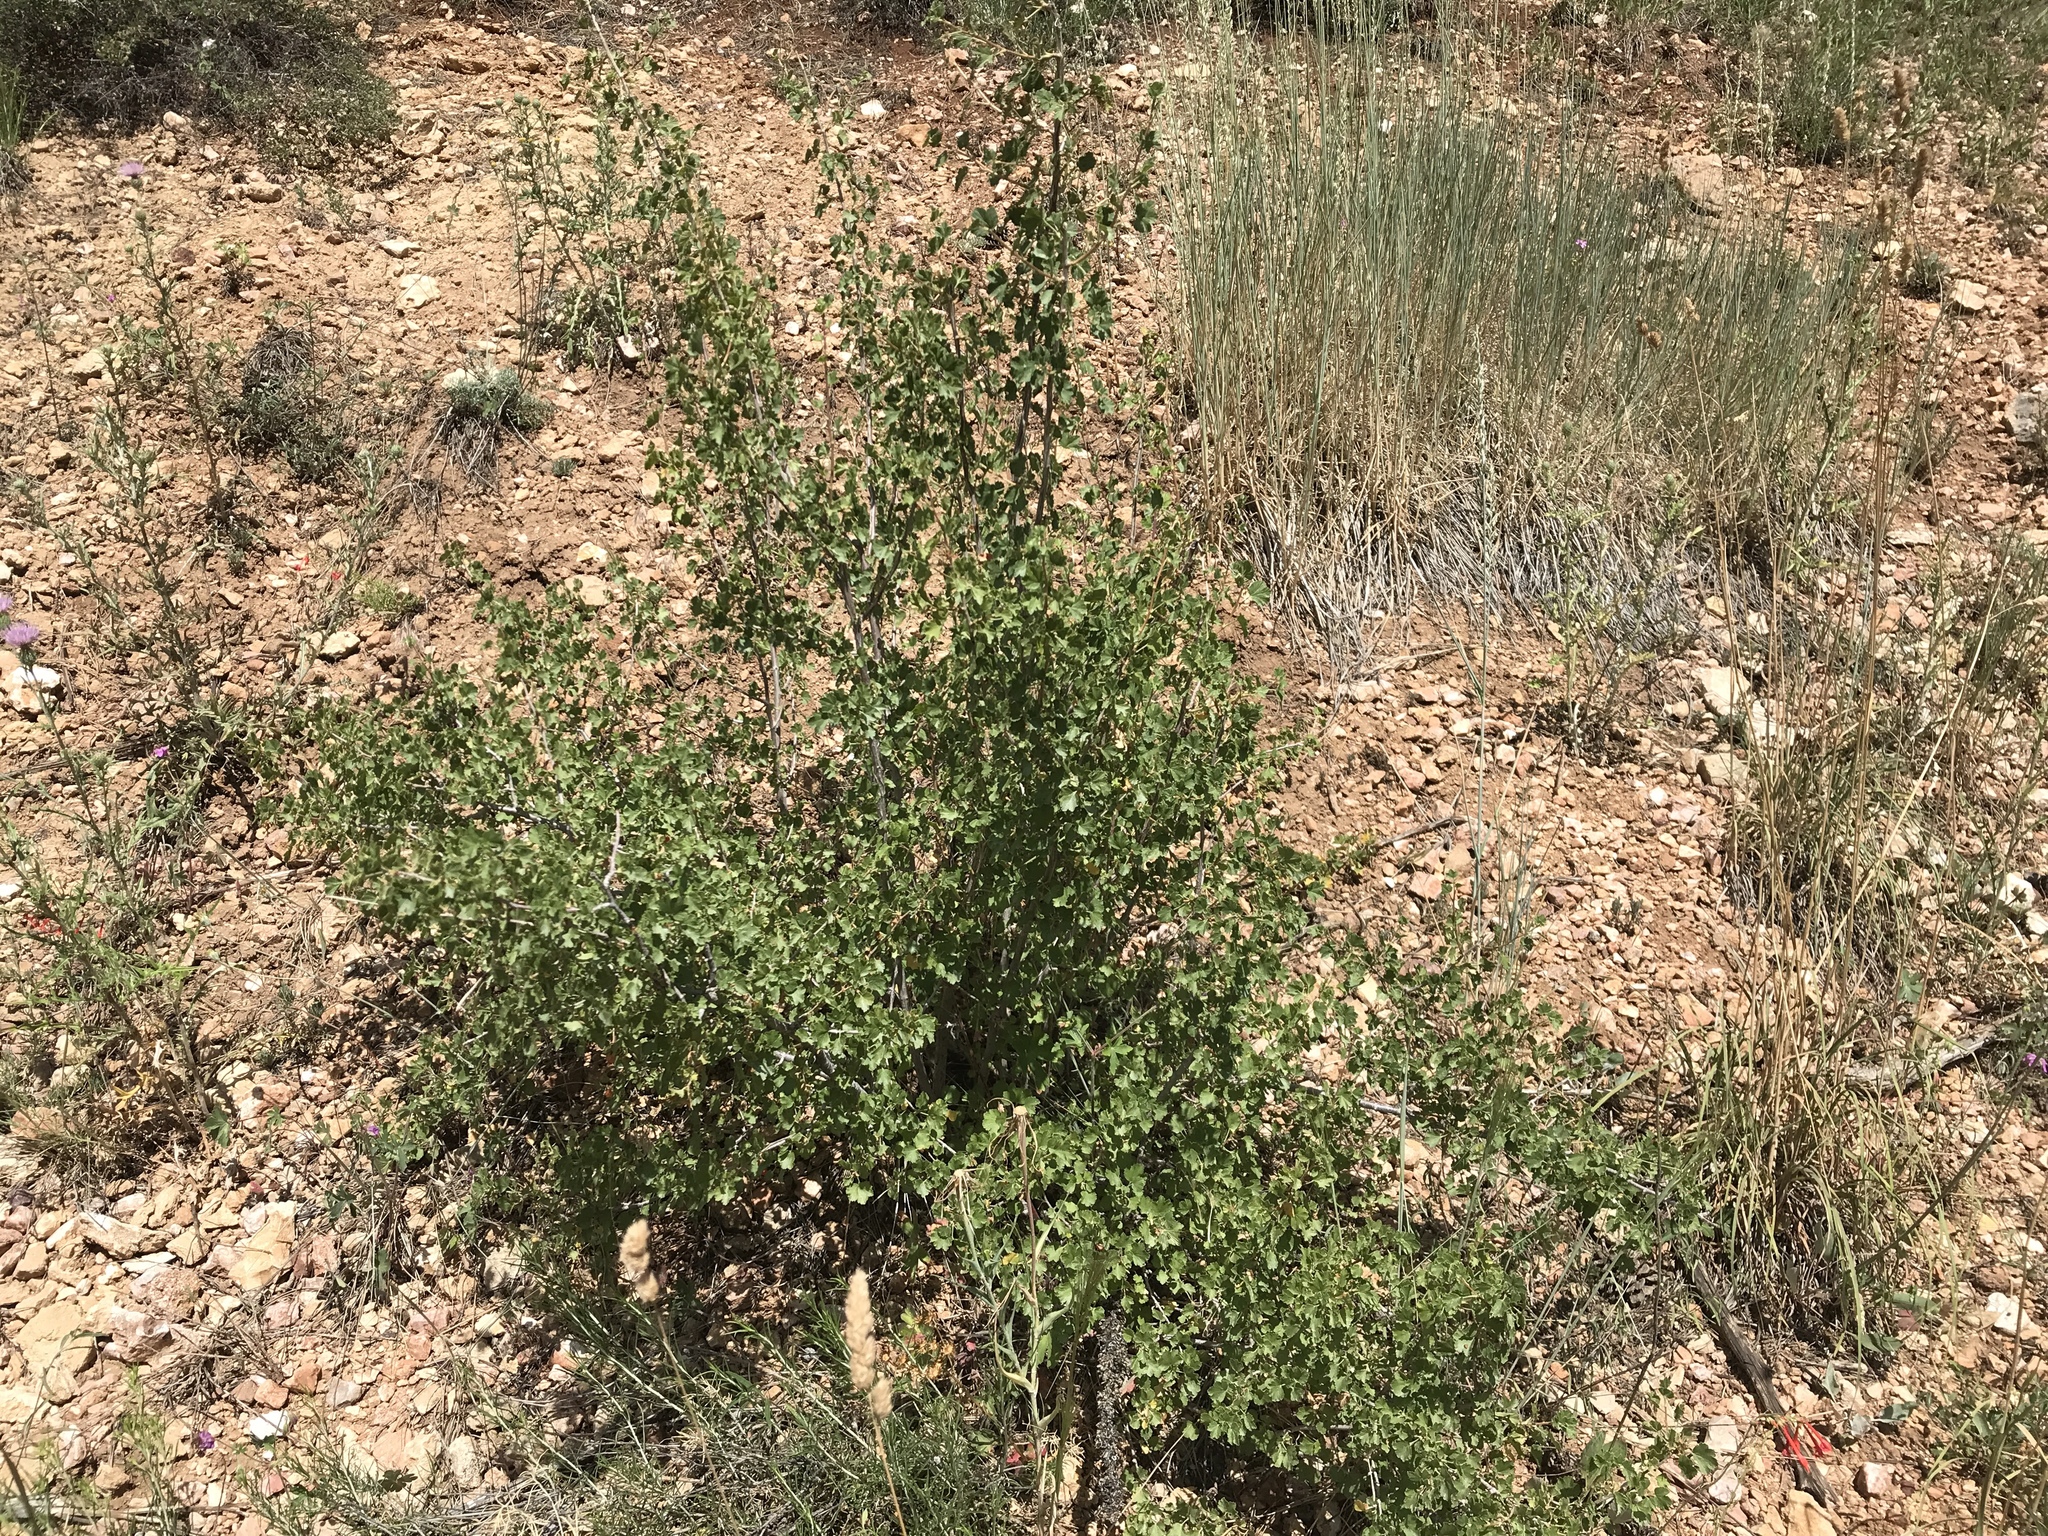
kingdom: Plantae
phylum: Tracheophyta
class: Magnoliopsida
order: Saxifragales
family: Grossulariaceae
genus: Ribes
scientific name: Ribes cereum
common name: Wax currant
